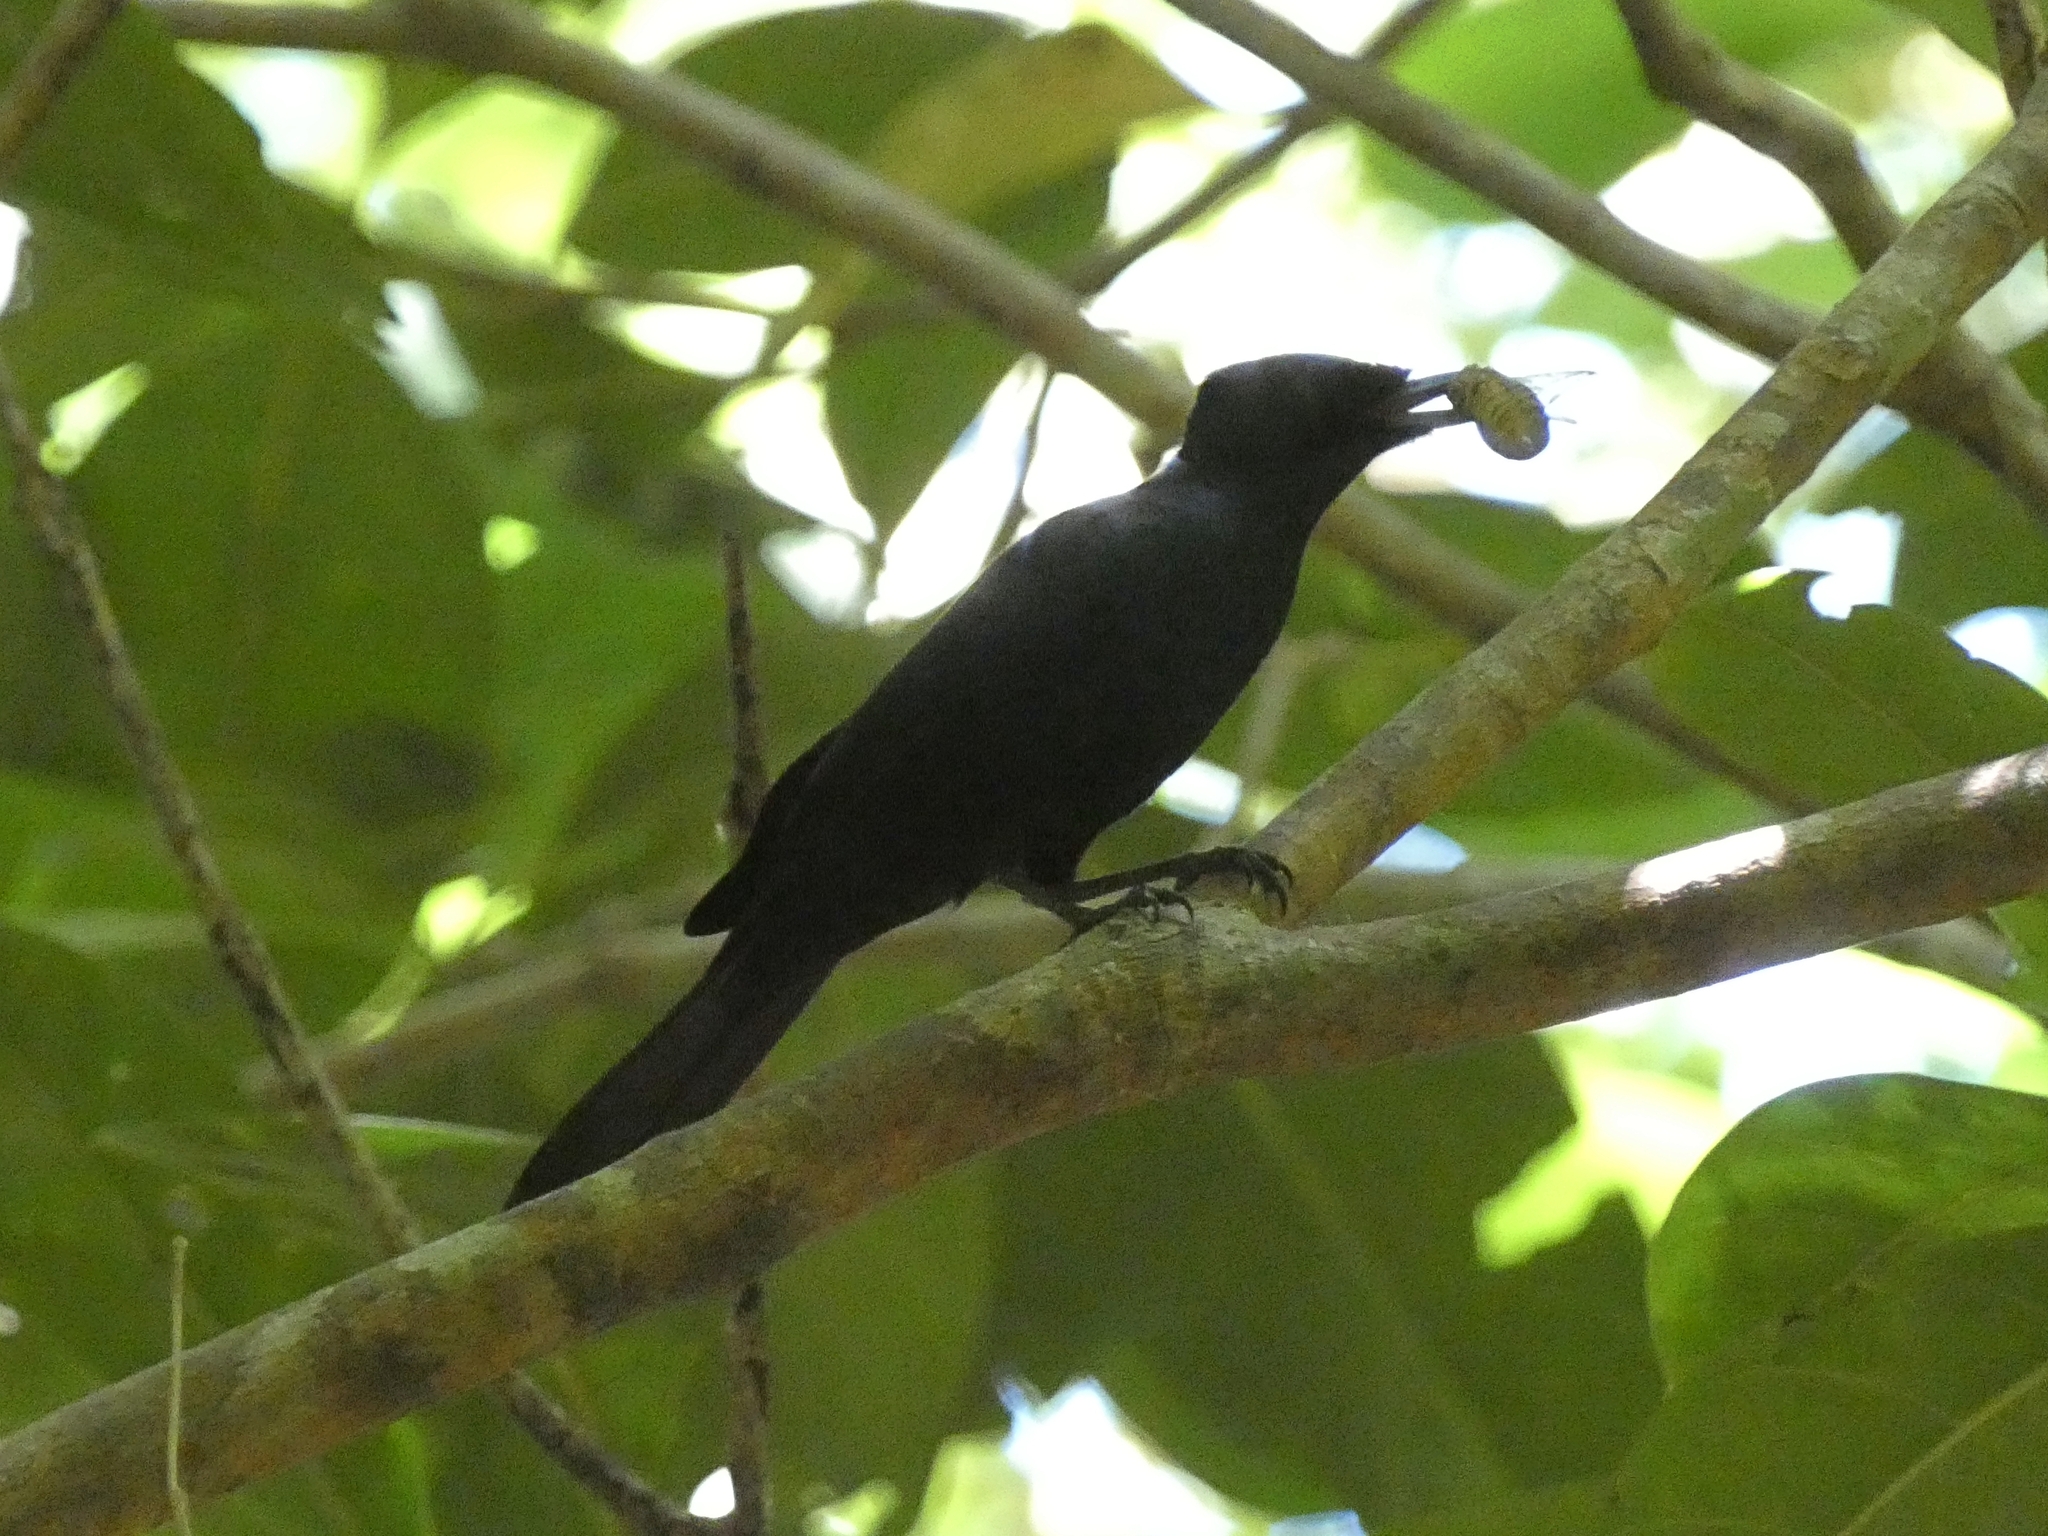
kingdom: Animalia
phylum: Chordata
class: Aves
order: Passeriformes
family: Monarchidae
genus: Myiagra
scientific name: Myiagra alecto
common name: Shining flycatcher
